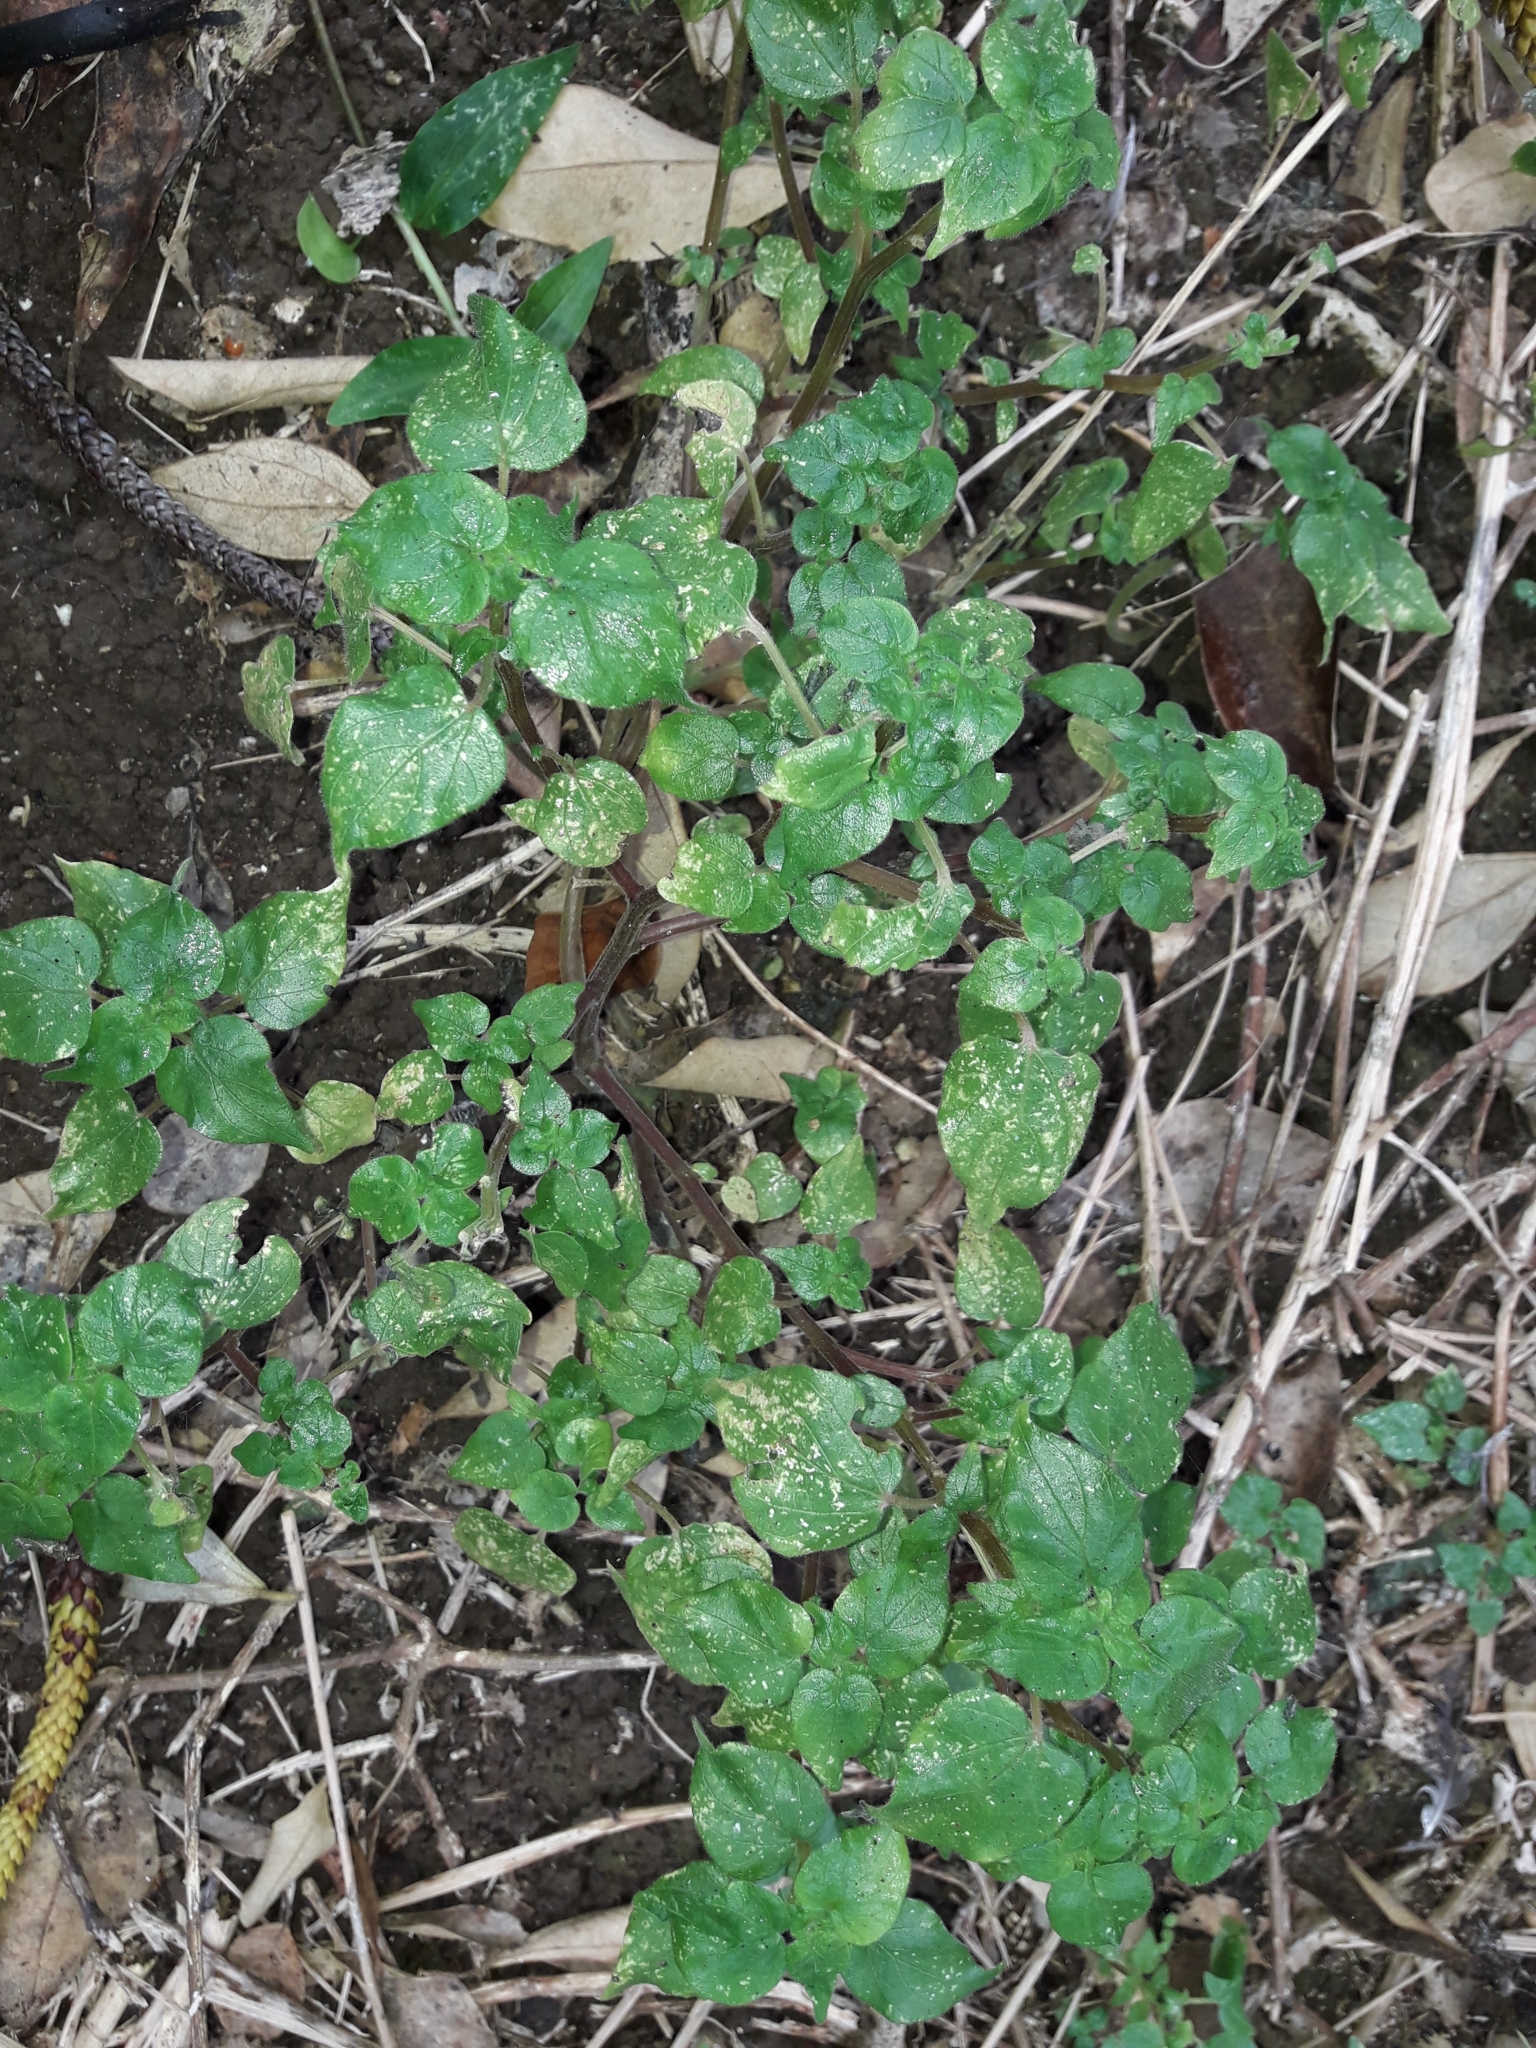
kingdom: Plantae
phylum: Tracheophyta
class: Magnoliopsida
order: Rosales
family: Urticaceae
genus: Parietaria
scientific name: Parietaria debilis
